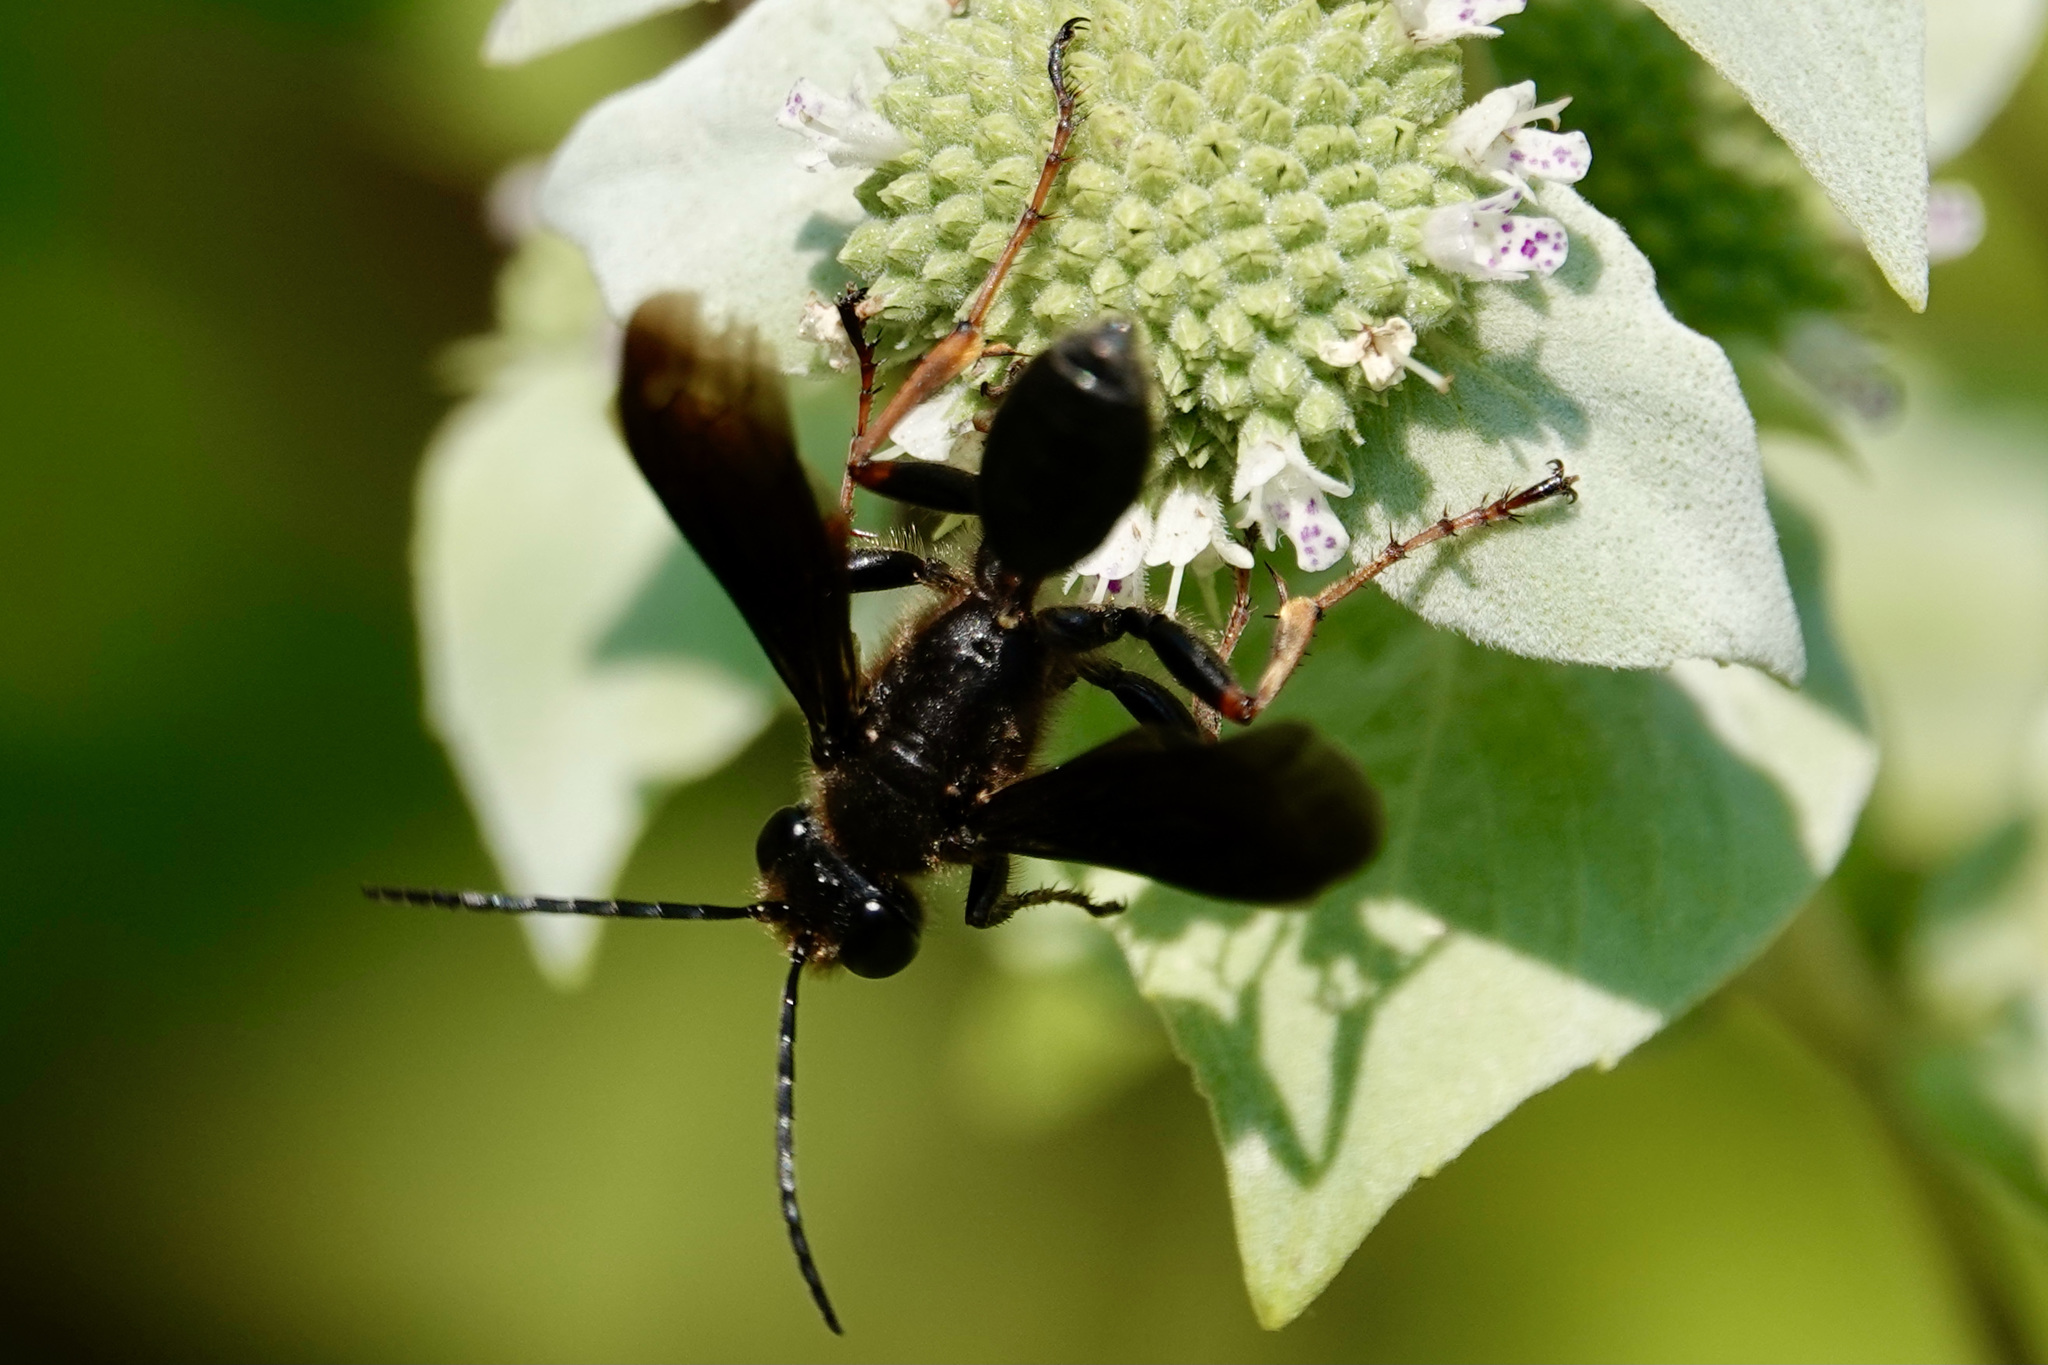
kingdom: Animalia
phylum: Arthropoda
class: Insecta
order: Hymenoptera
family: Sphecidae
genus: Isodontia
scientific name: Isodontia auripes
